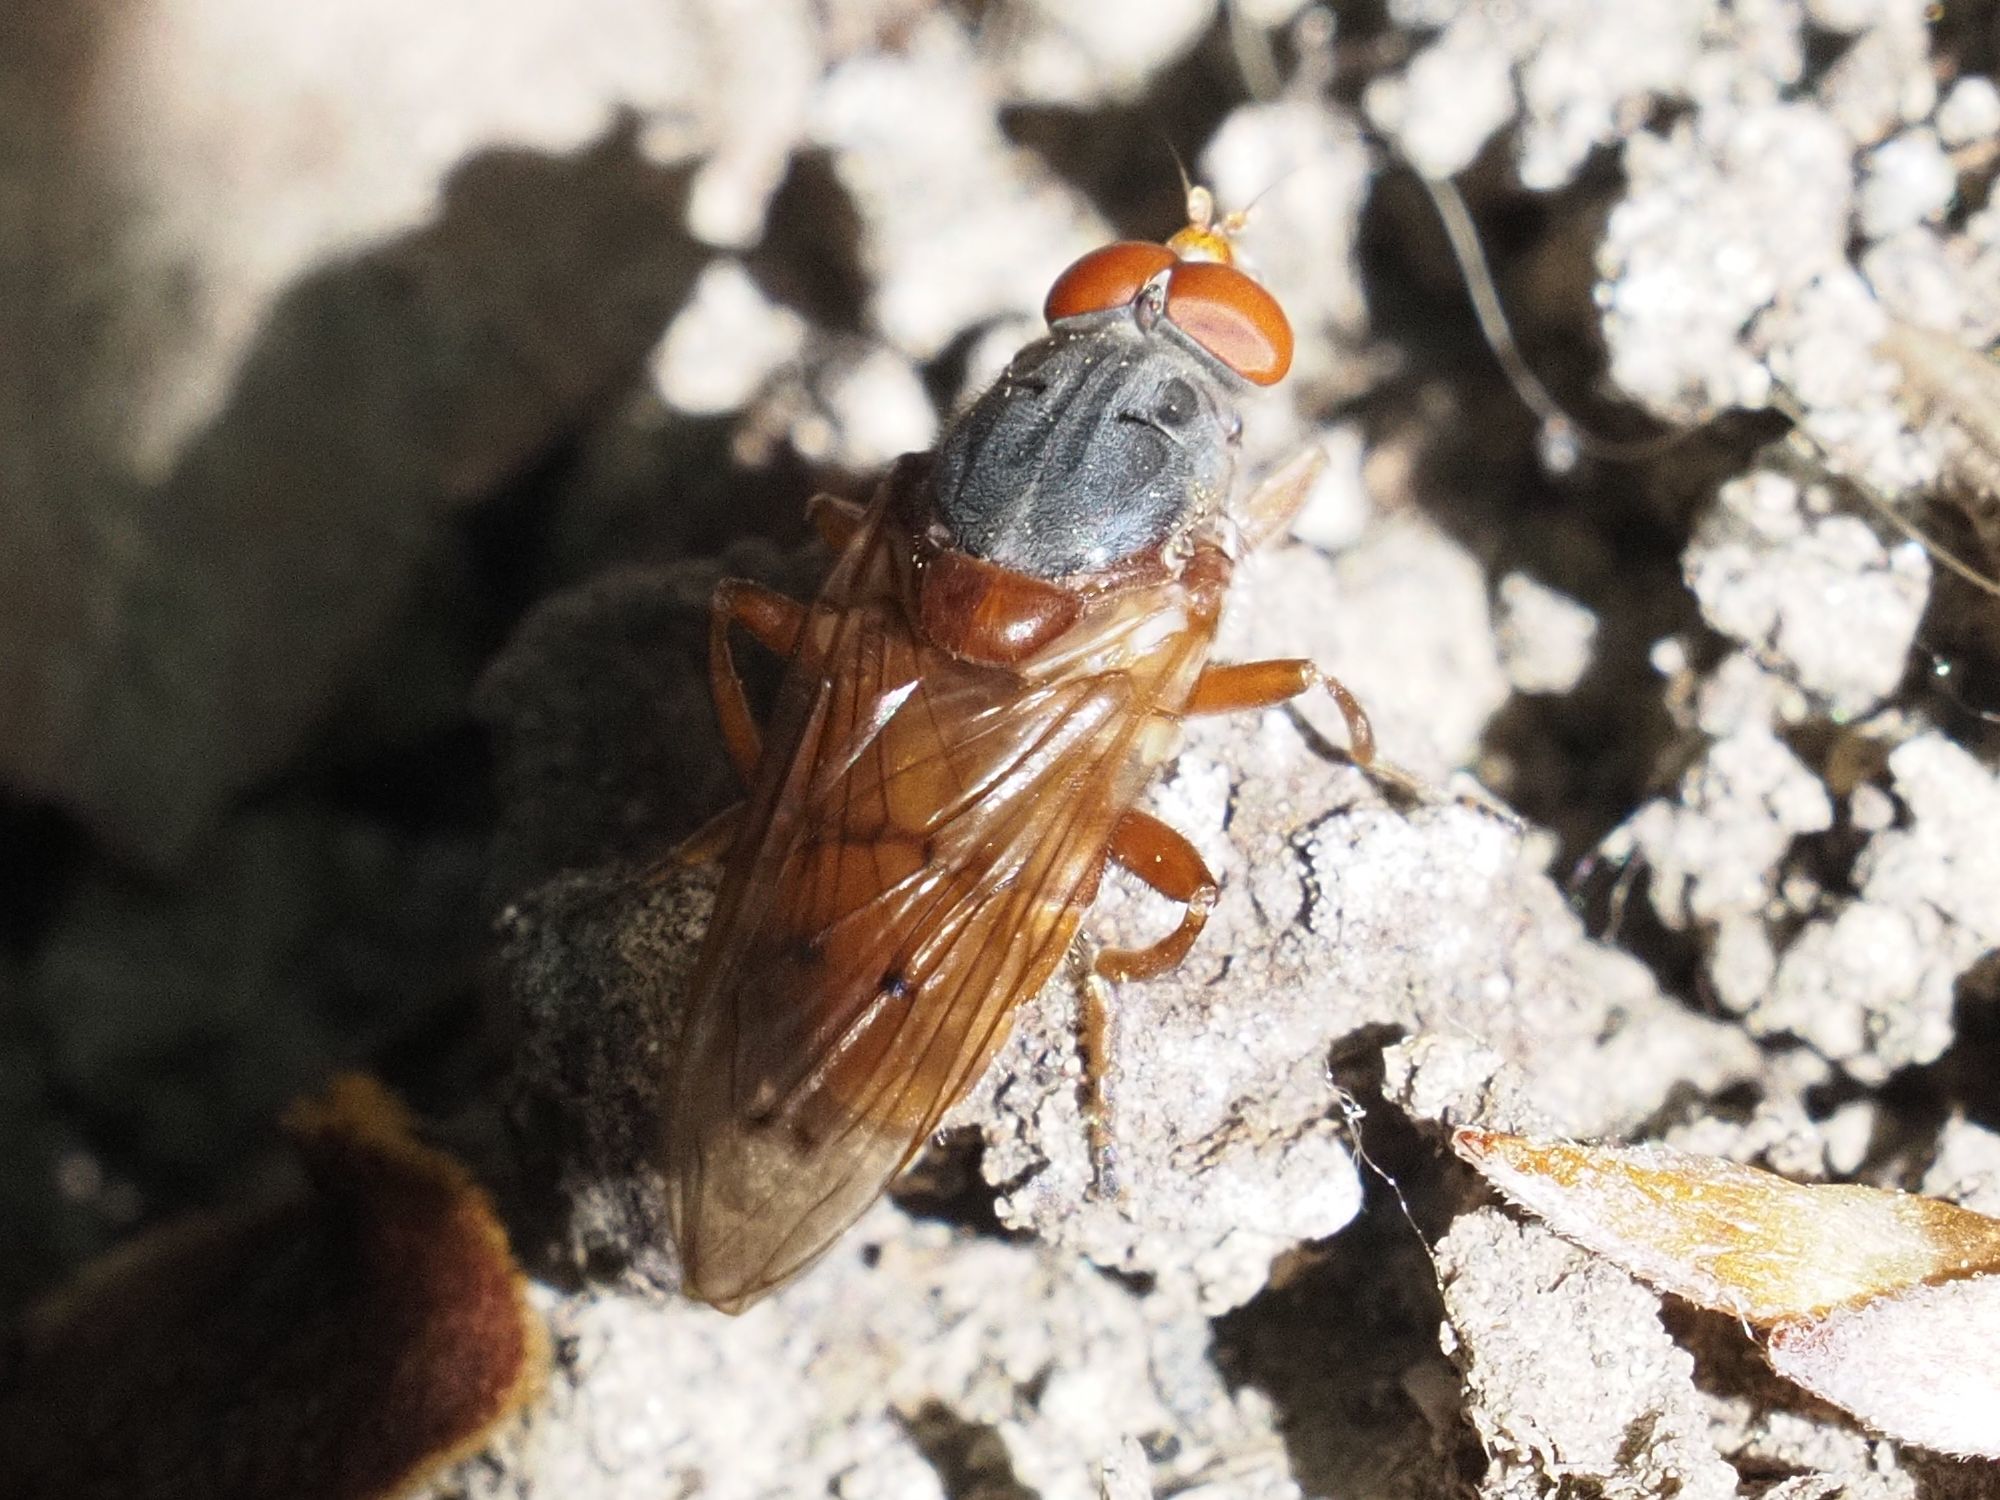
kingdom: Animalia
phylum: Arthropoda
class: Insecta
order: Diptera
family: Syrphidae
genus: Brachyopa
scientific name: Brachyopa maculipennis
